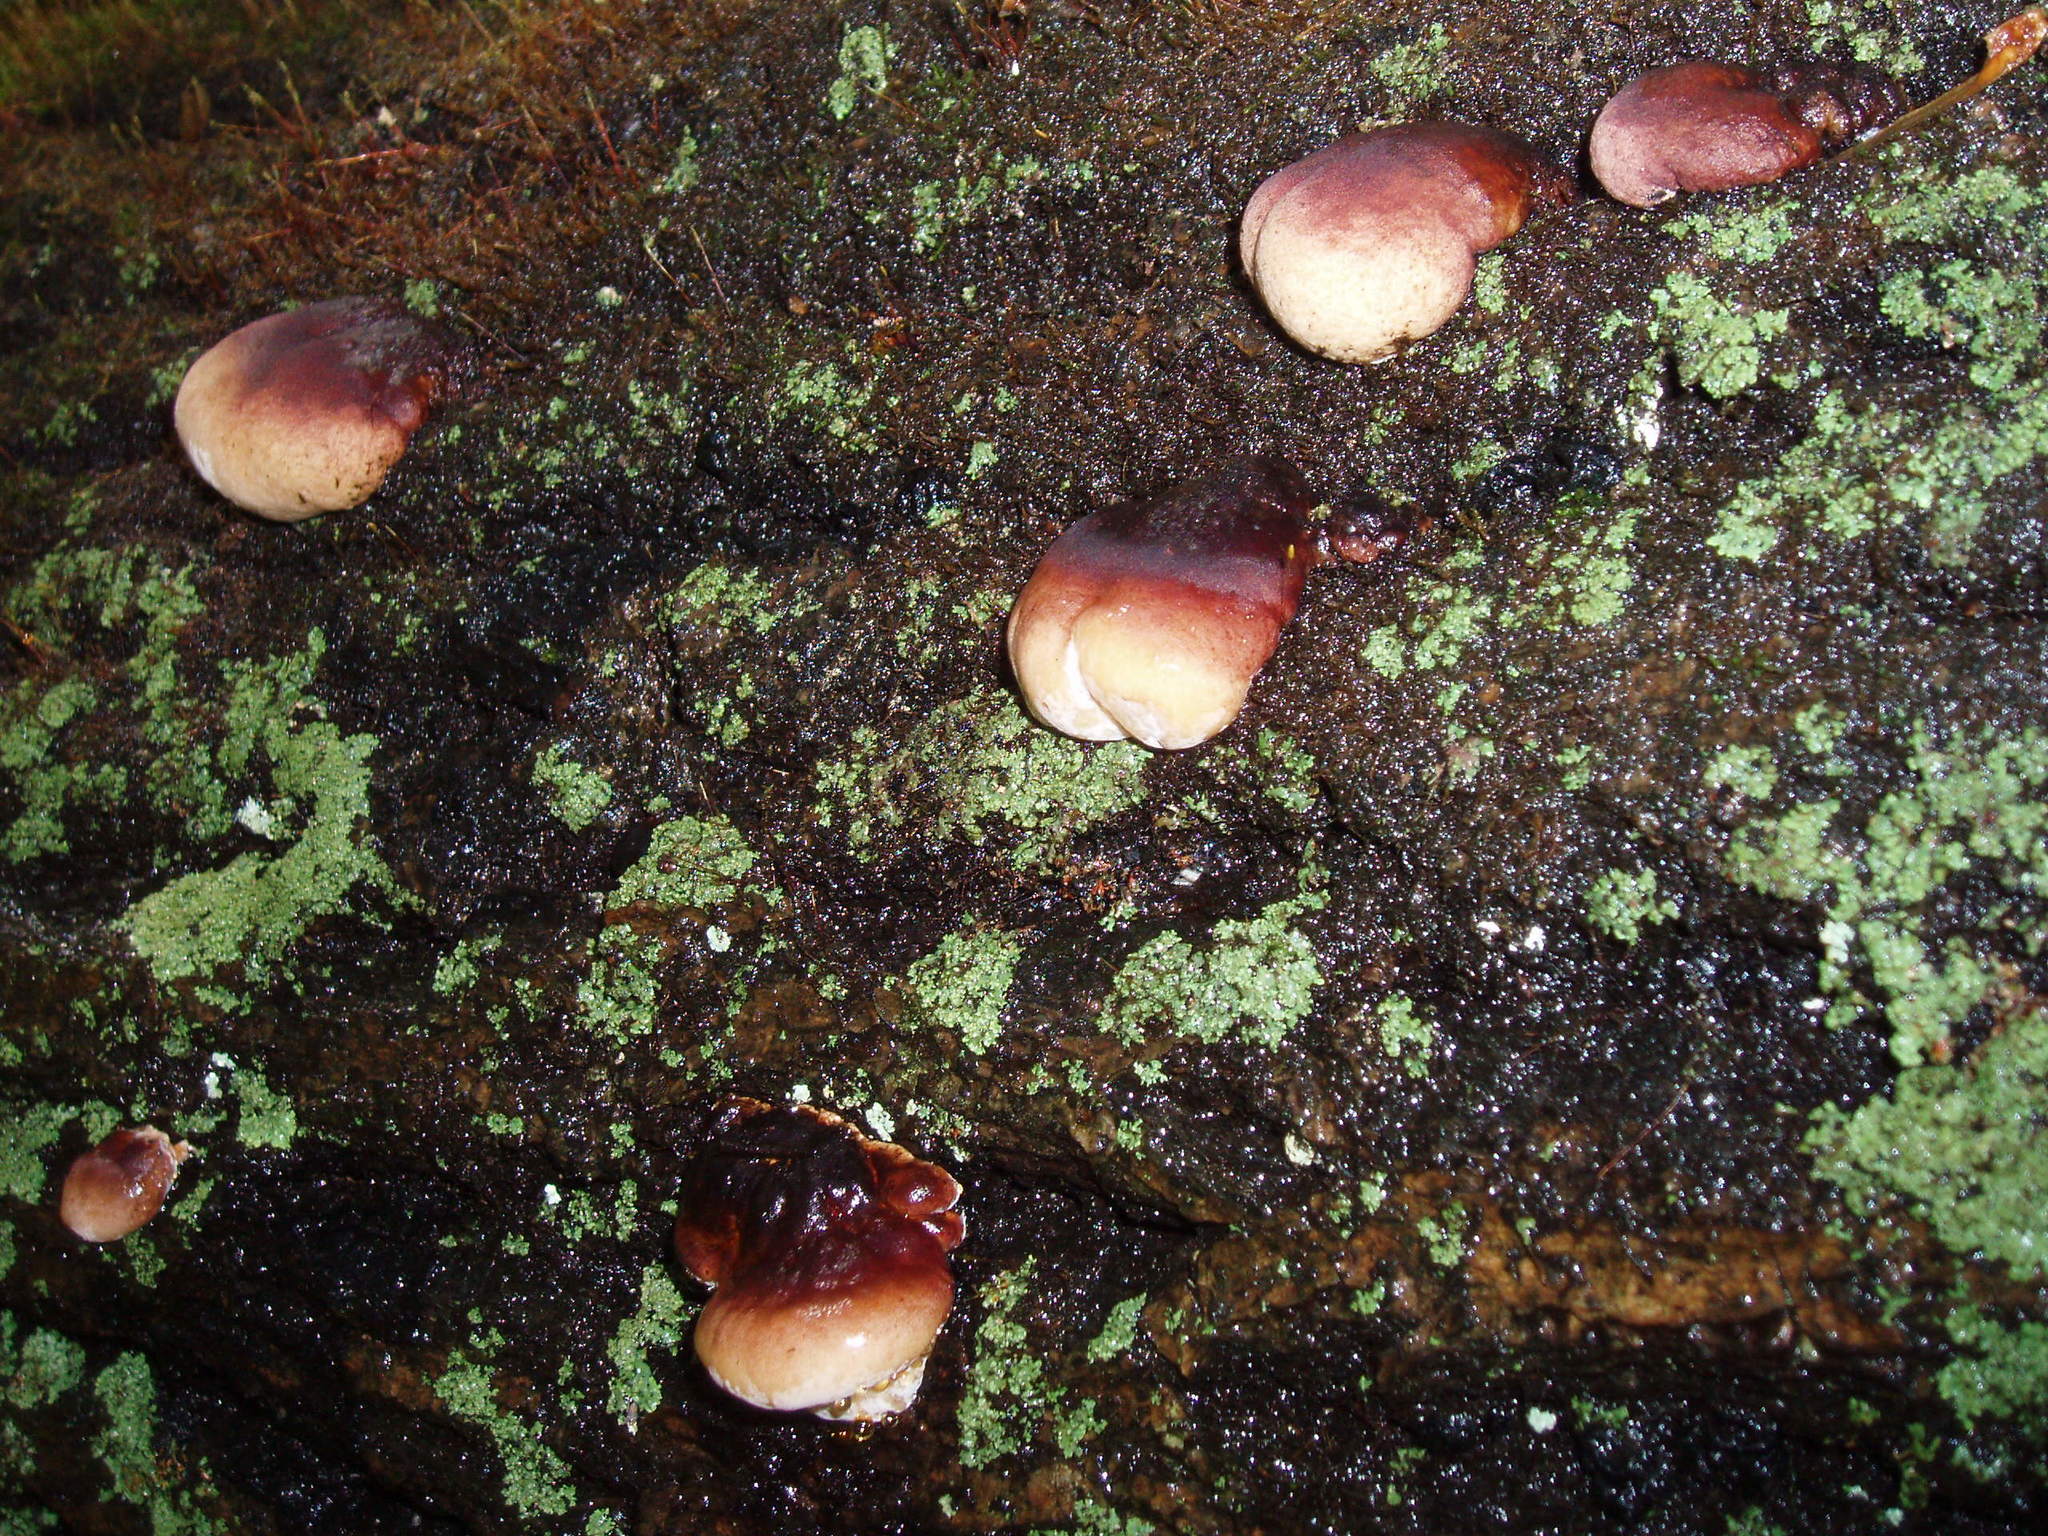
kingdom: Fungi
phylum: Basidiomycota
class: Agaricomycetes
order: Polyporales
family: Ischnodermataceae
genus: Ischnoderma
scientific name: Ischnoderma resinosum
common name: Resinous polypore
